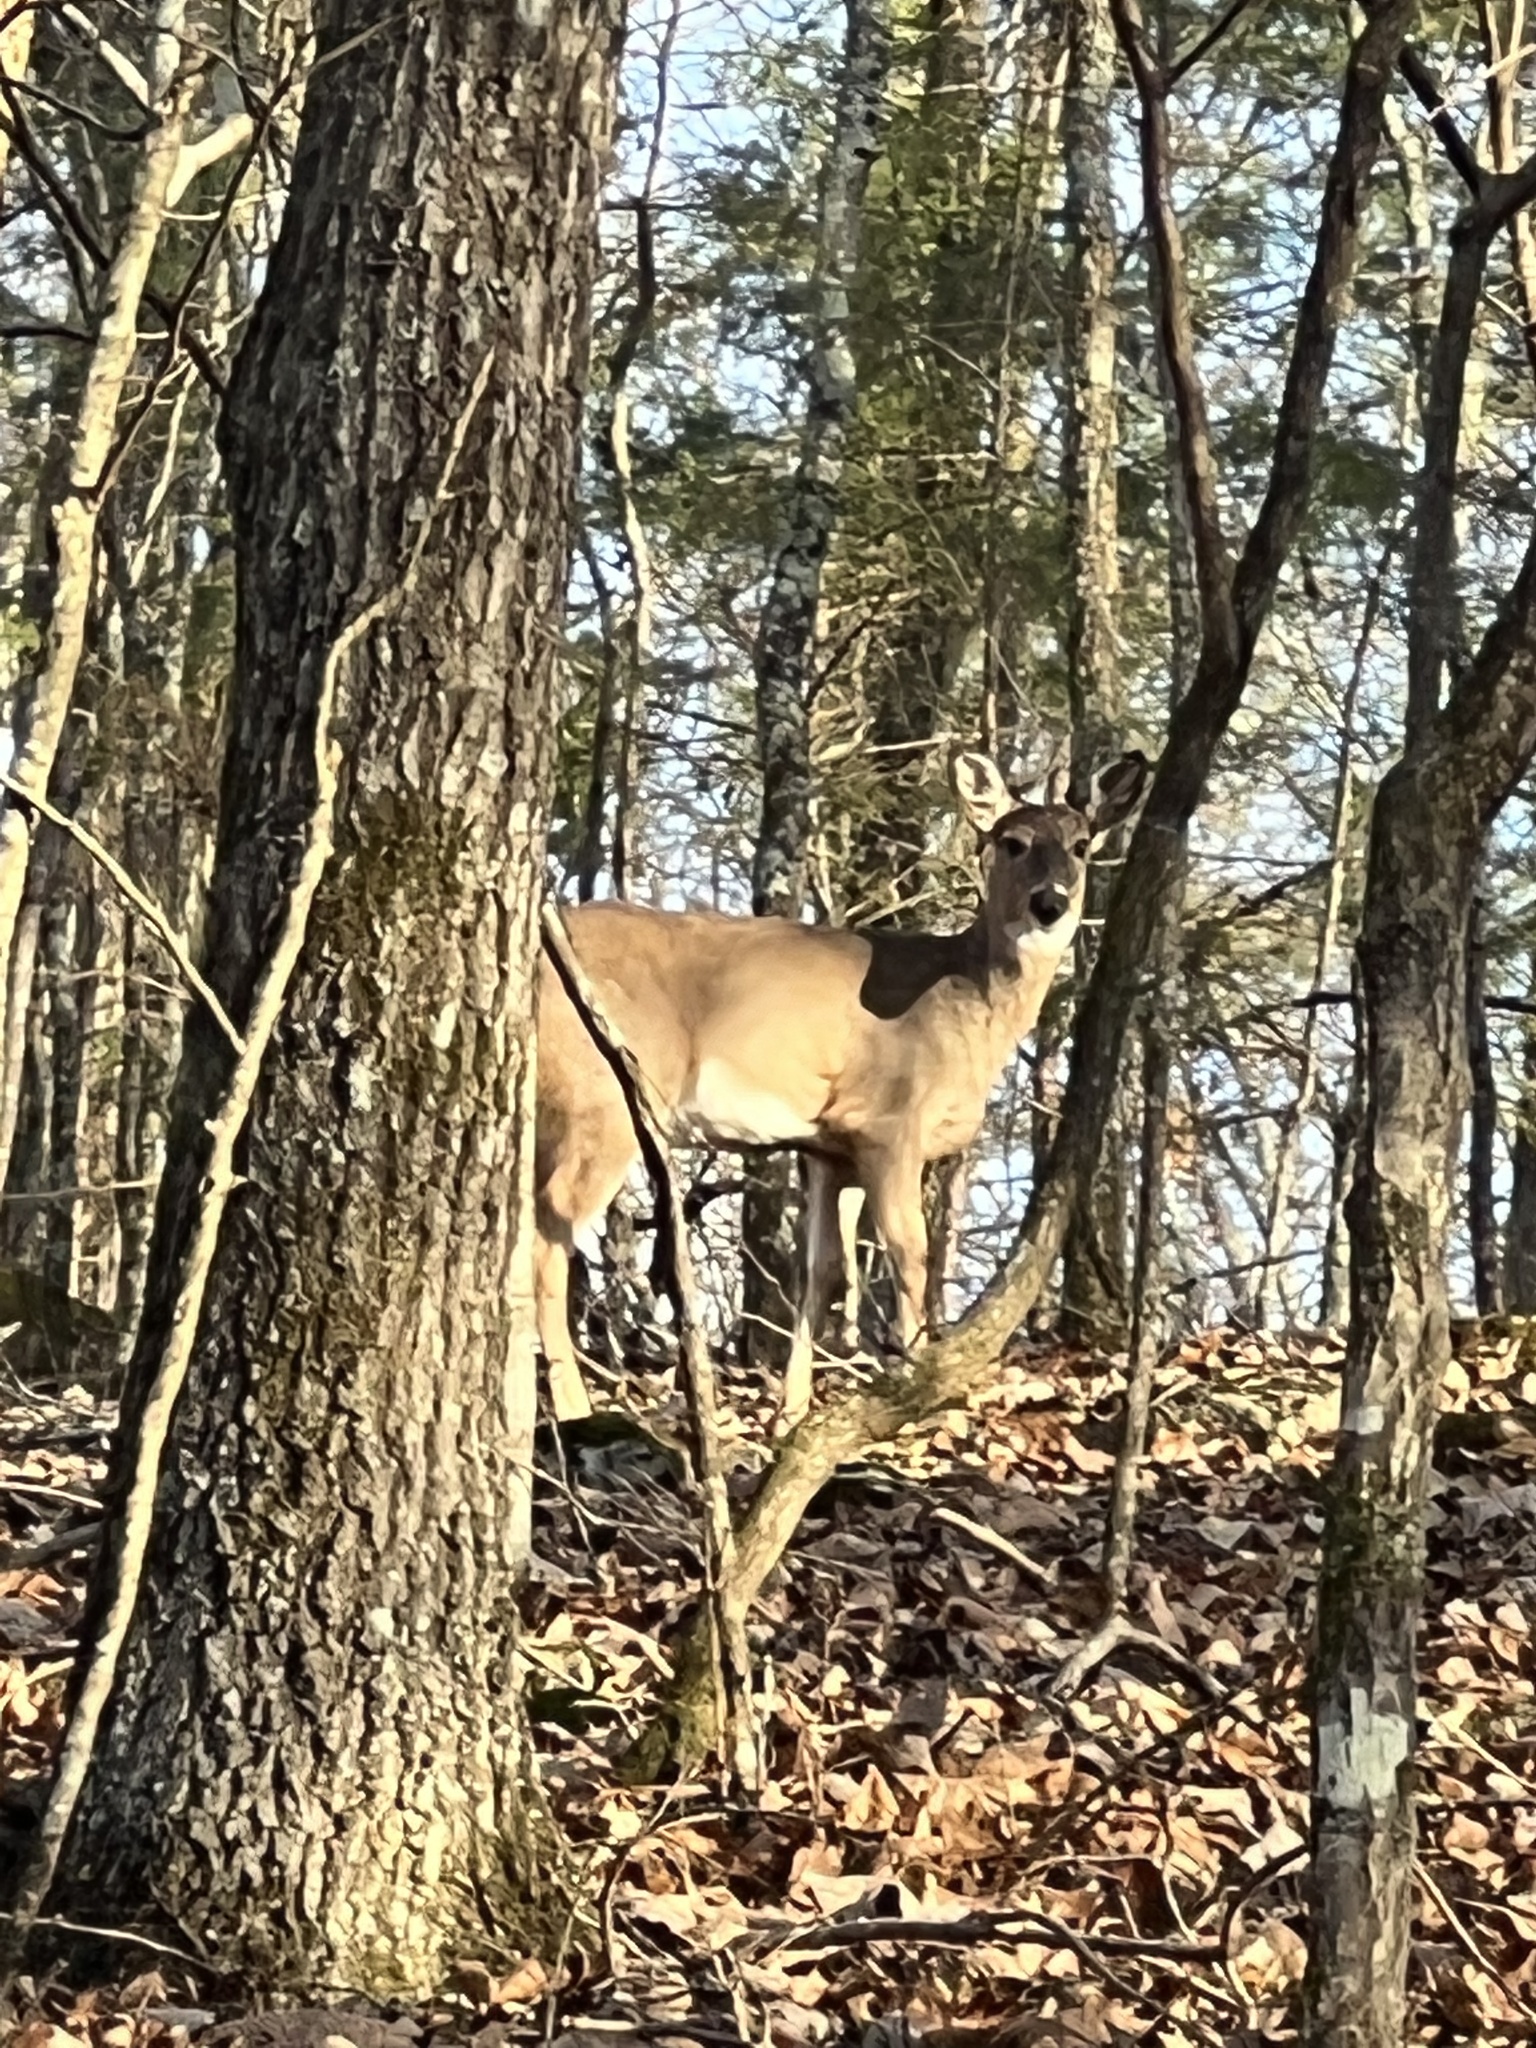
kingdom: Animalia
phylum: Chordata
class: Mammalia
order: Artiodactyla
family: Cervidae
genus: Odocoileus
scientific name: Odocoileus virginianus
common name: White-tailed deer
